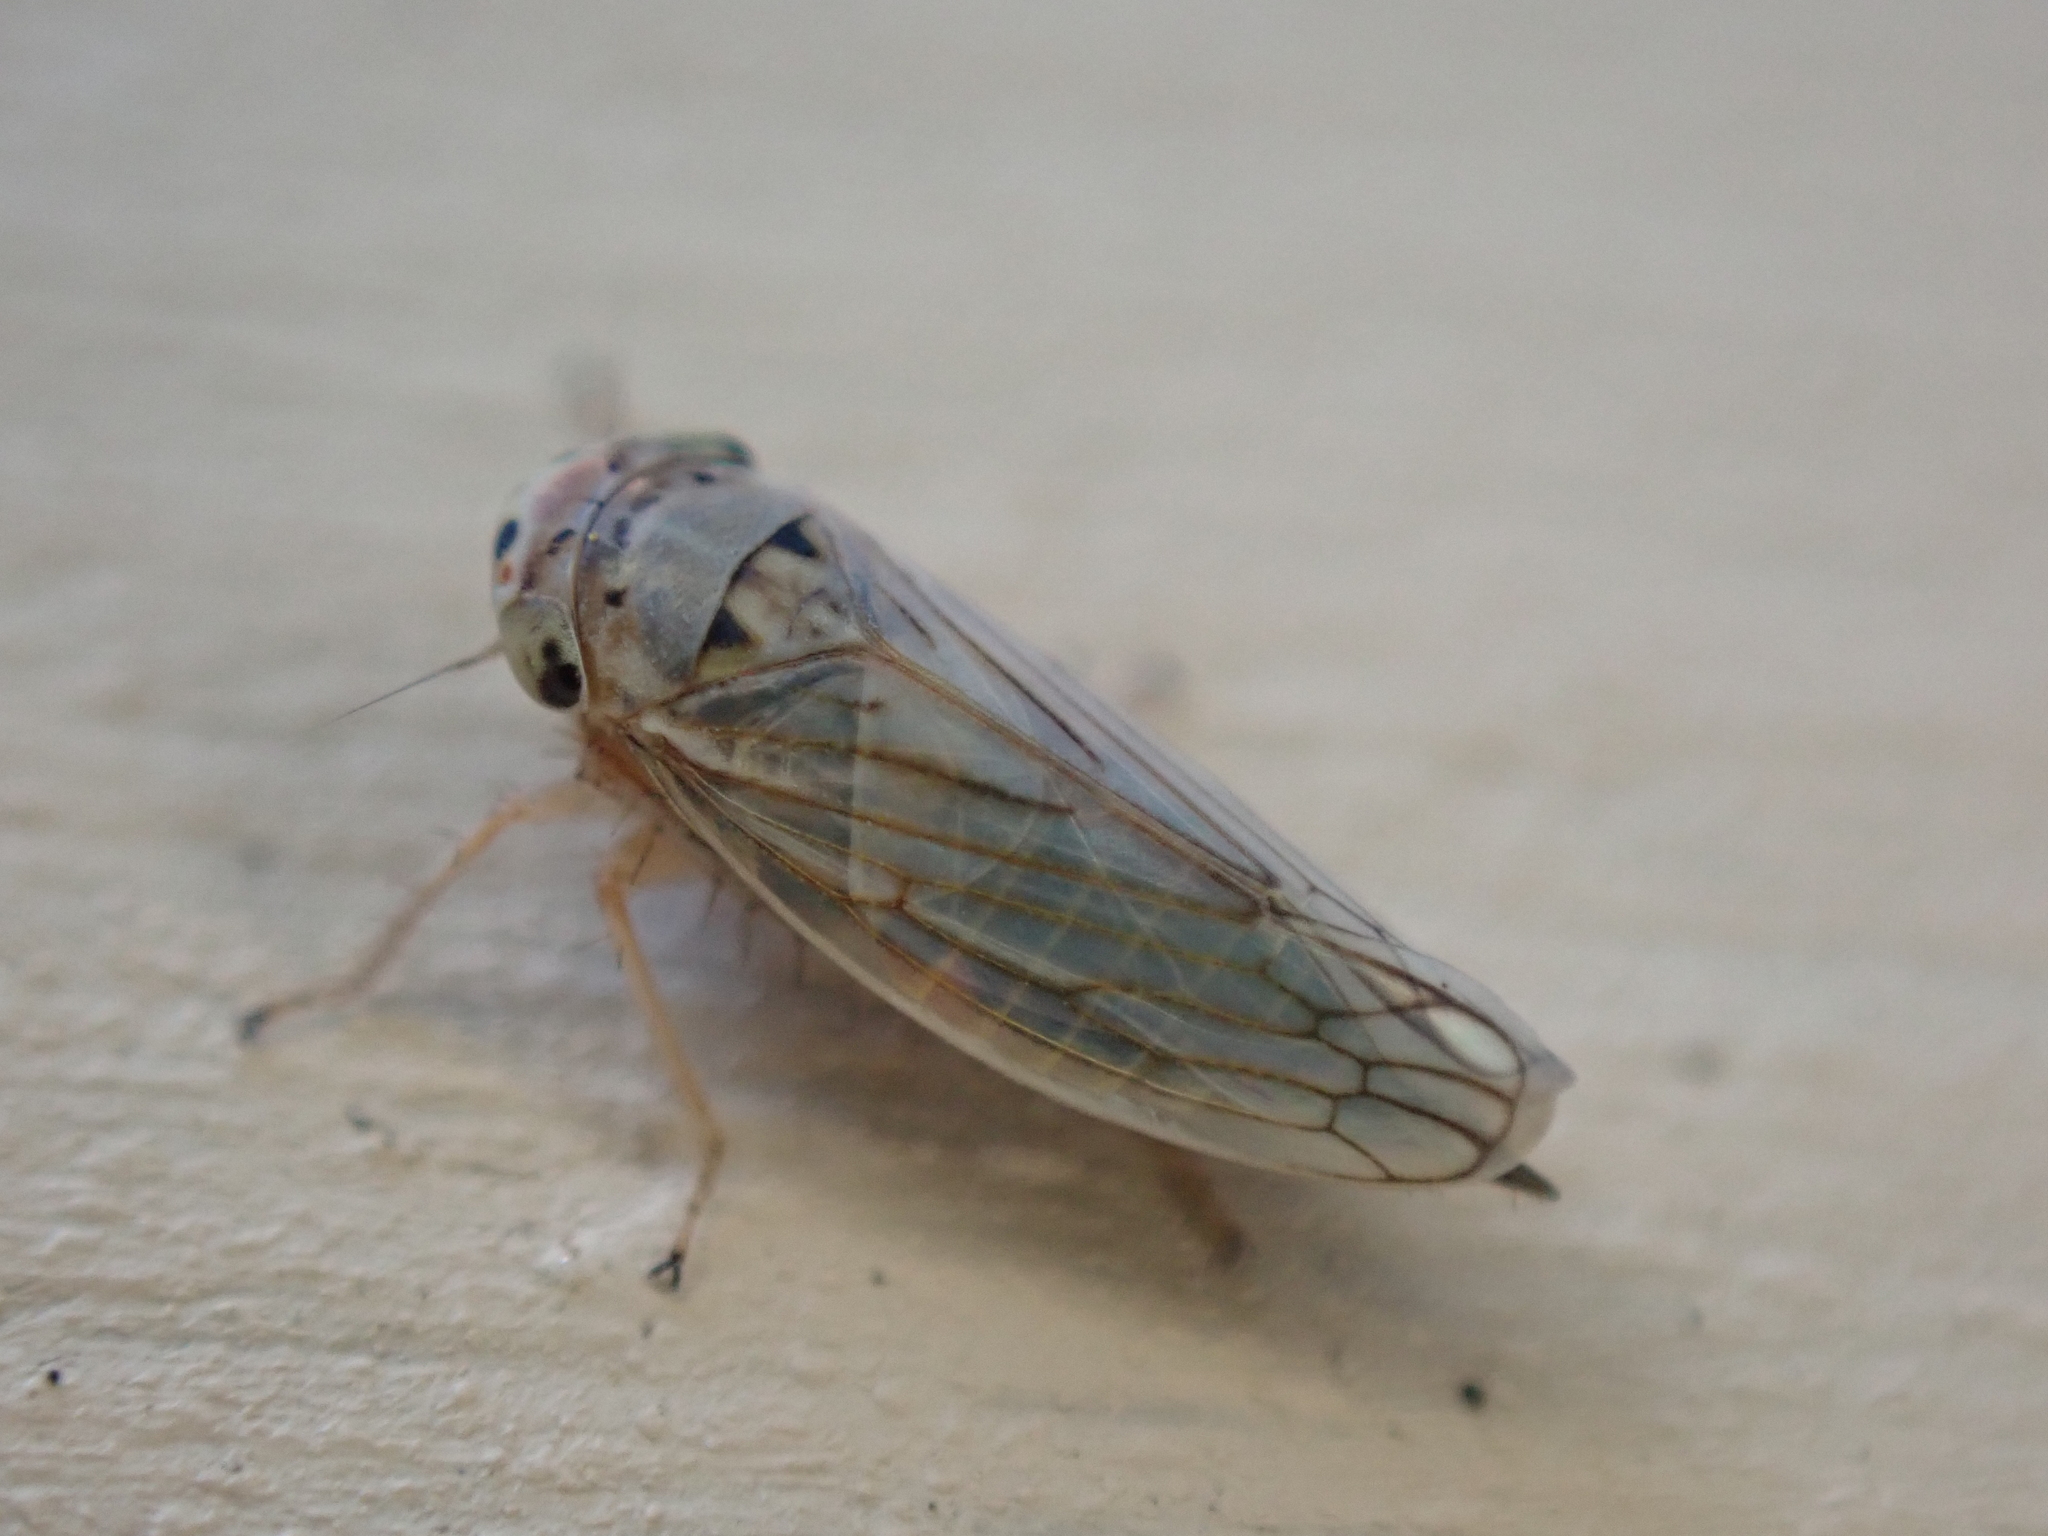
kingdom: Animalia
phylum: Arthropoda
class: Insecta
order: Hemiptera
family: Cicadellidae
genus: Exitianus
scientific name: Exitianus exitiosus
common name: Gray lawn leafhopper
